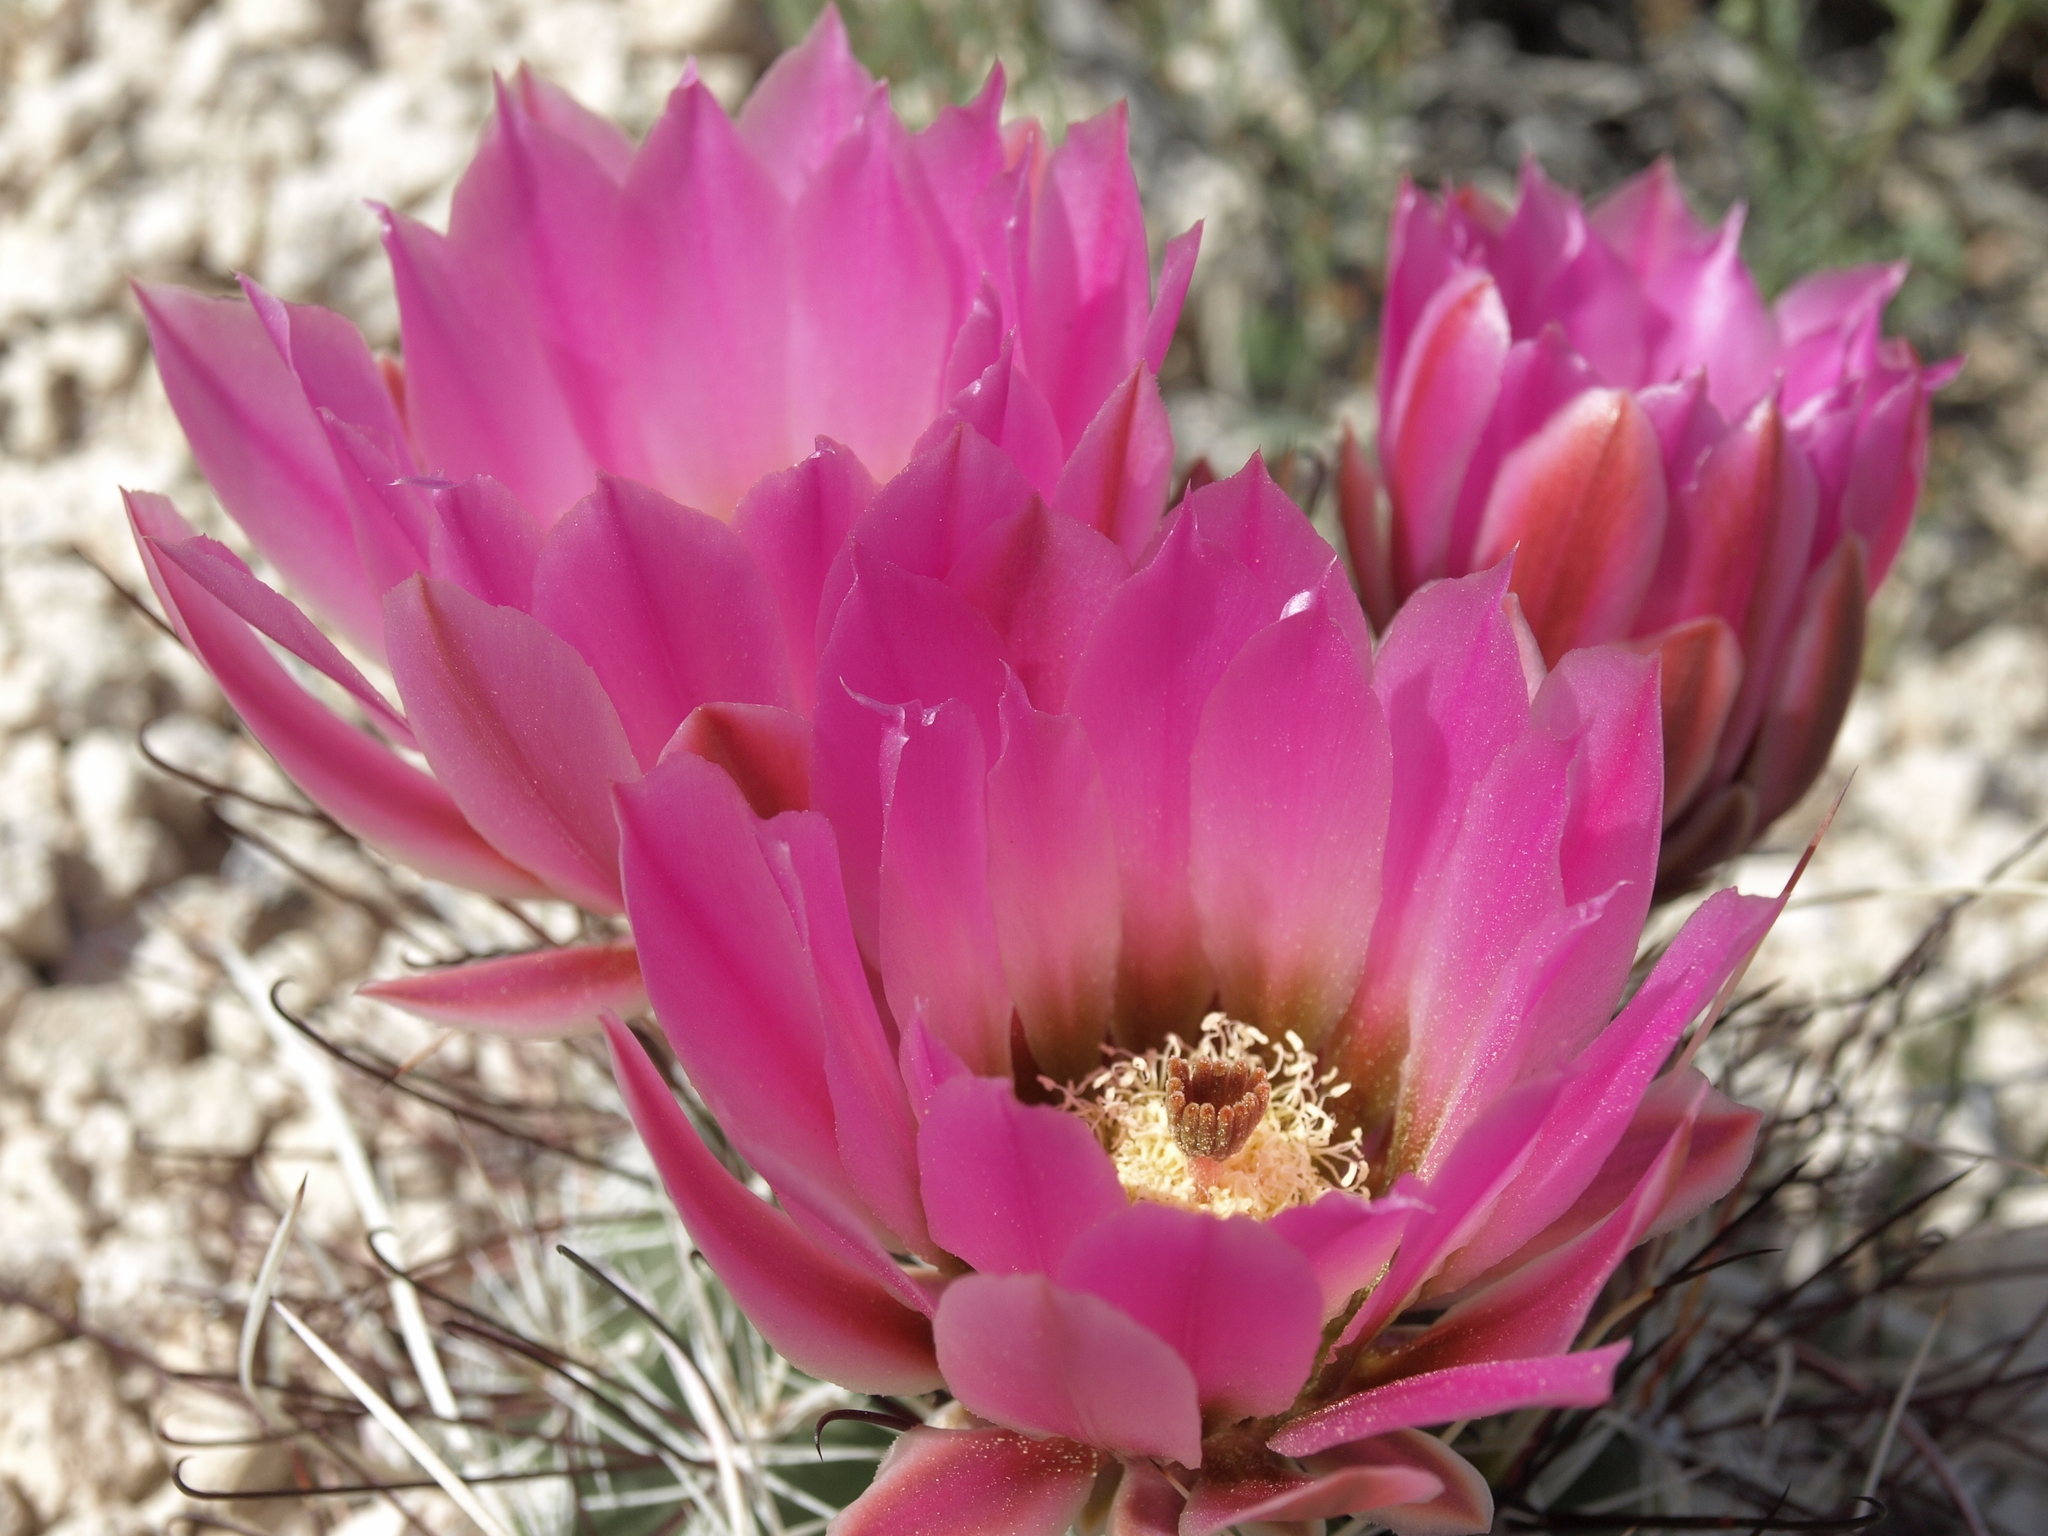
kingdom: Plantae
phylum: Tracheophyta
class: Magnoliopsida
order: Caryophyllales
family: Cactaceae
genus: Sclerocactus
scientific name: Sclerocactus polyancistrus
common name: Mohave fishhook cactus
